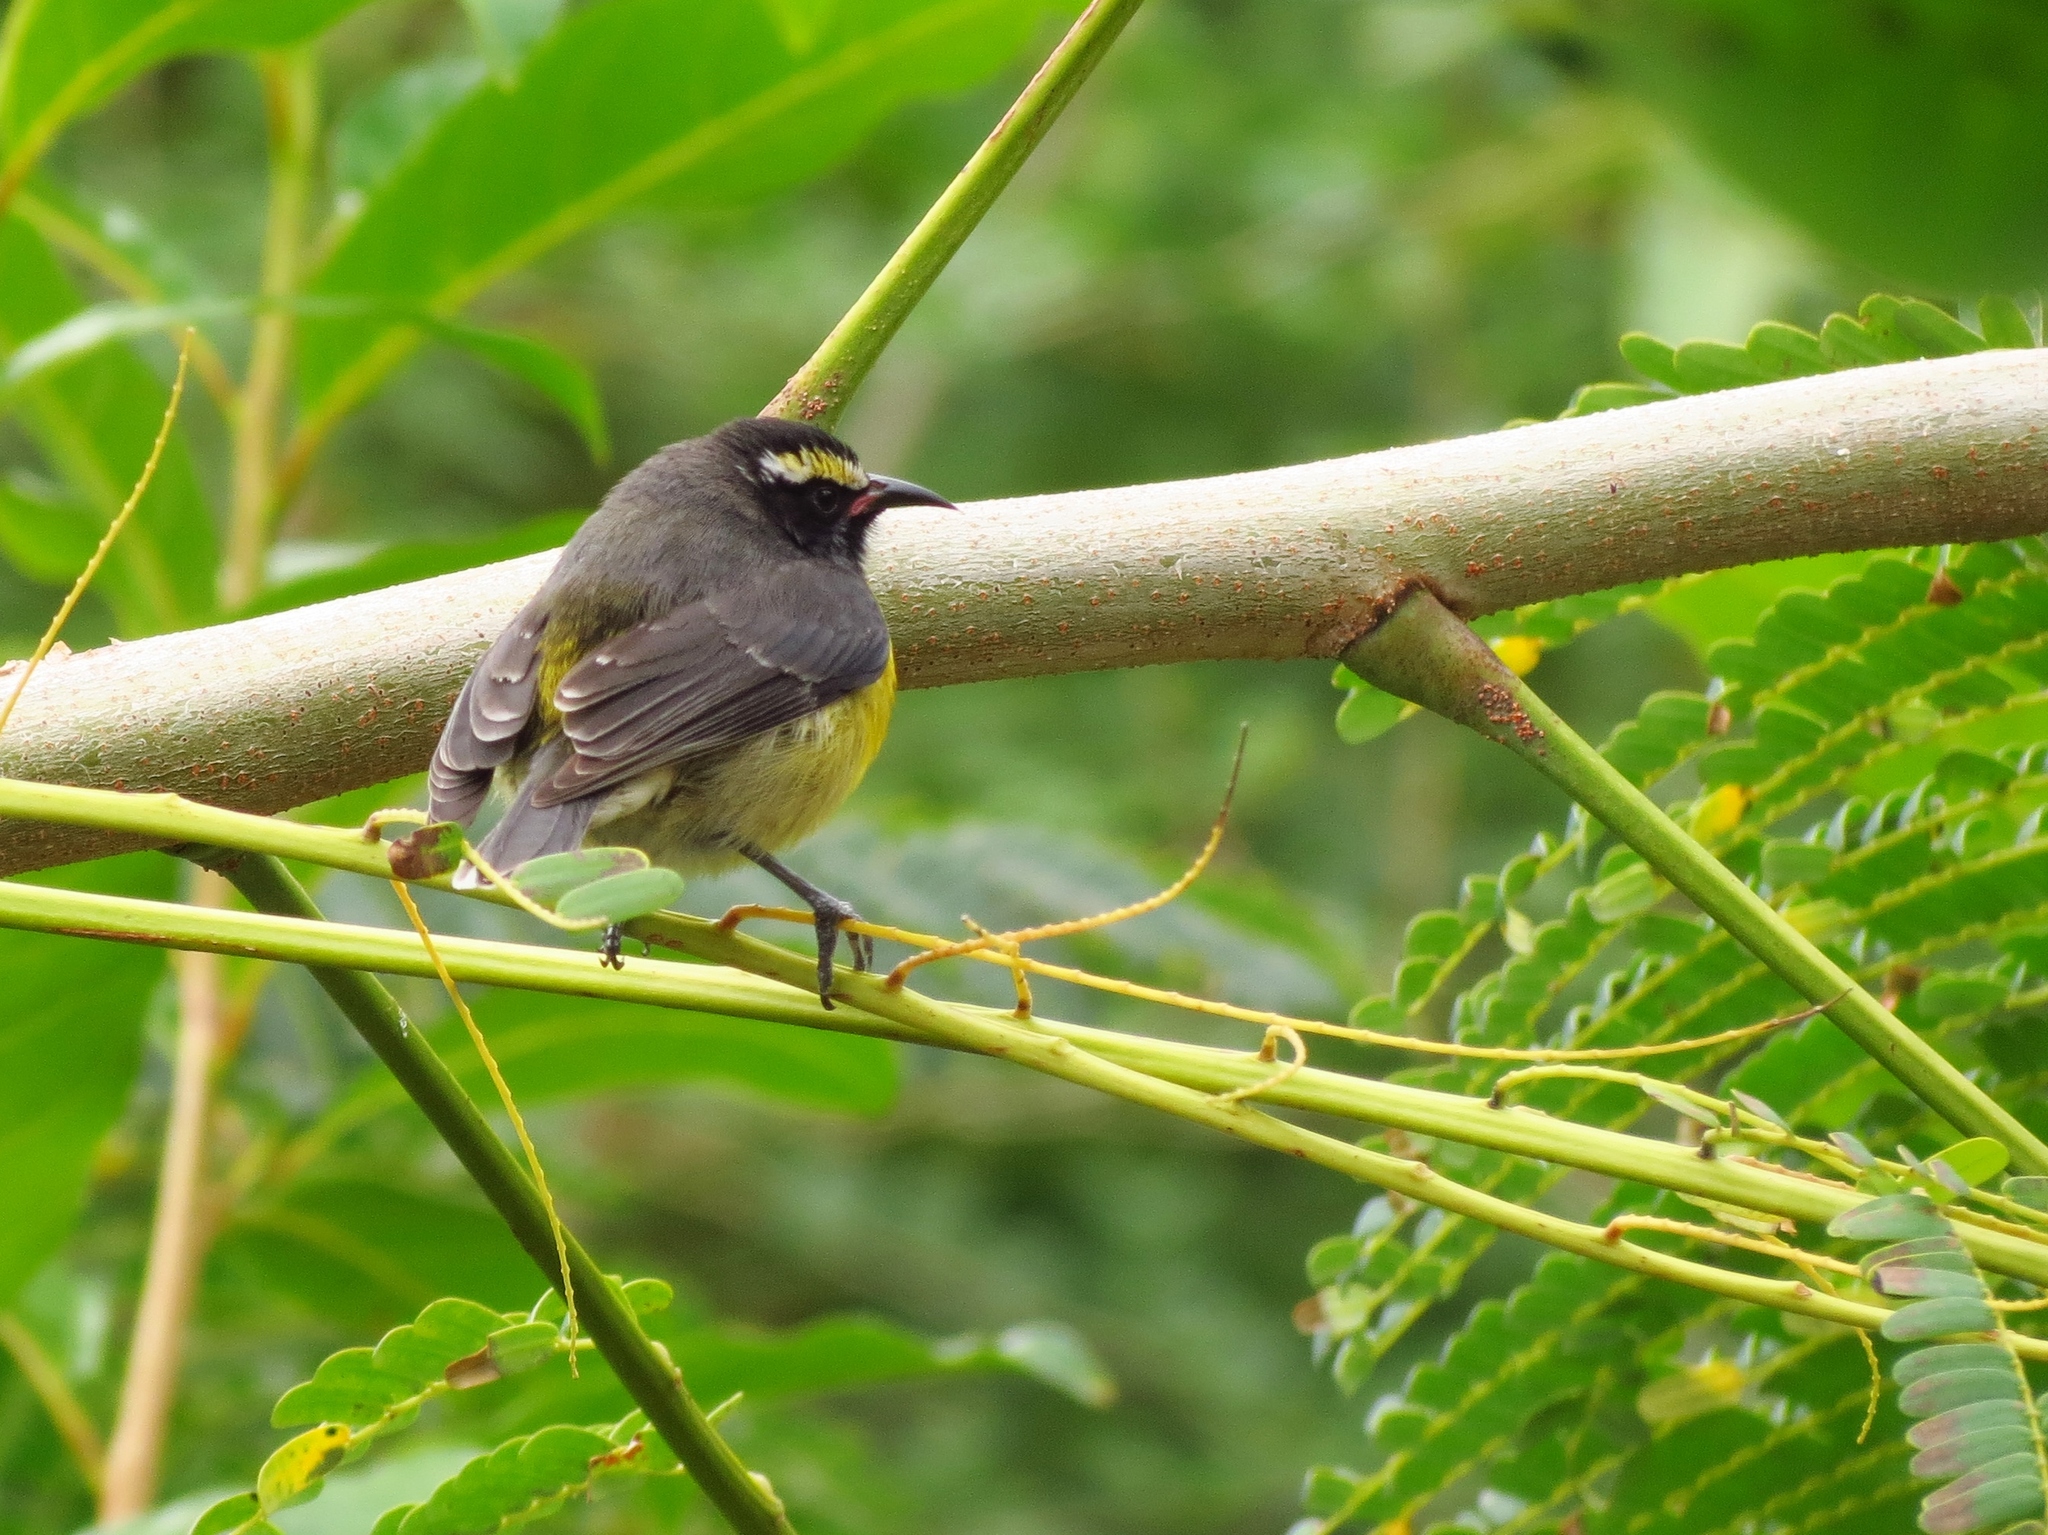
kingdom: Animalia
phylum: Chordata
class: Aves
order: Passeriformes
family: Thraupidae
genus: Coereba
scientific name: Coereba flaveola
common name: Bananaquit
